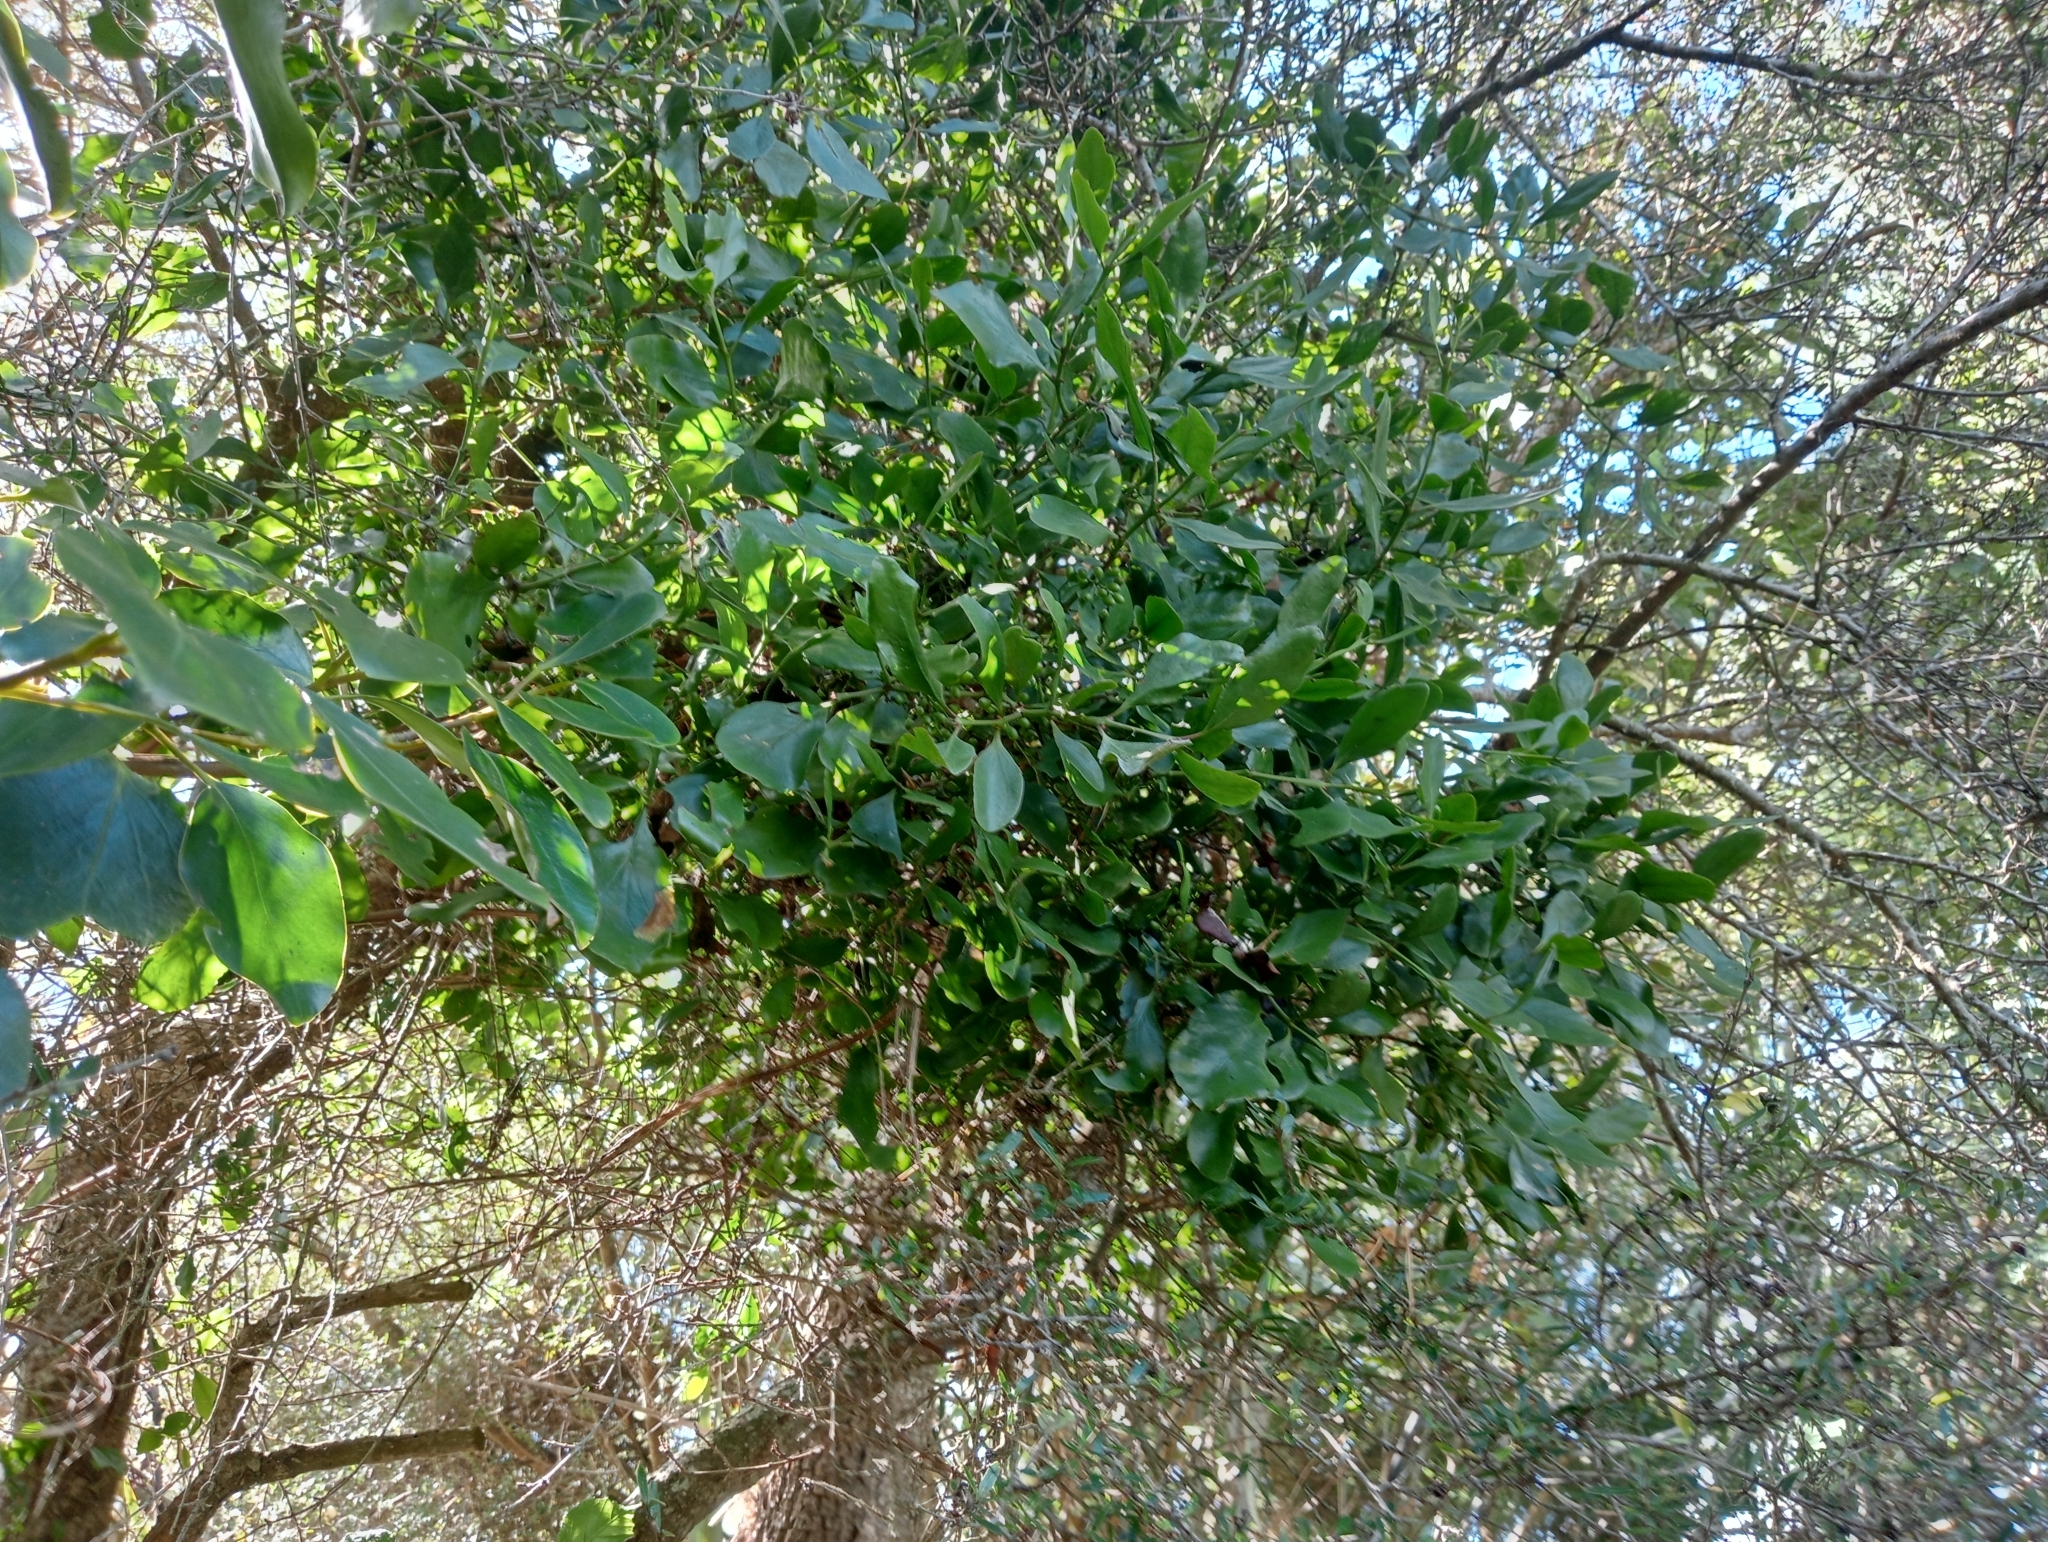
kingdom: Plantae
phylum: Tracheophyta
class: Magnoliopsida
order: Santalales
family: Loranthaceae
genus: Ileostylus
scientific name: Ileostylus micranthus
